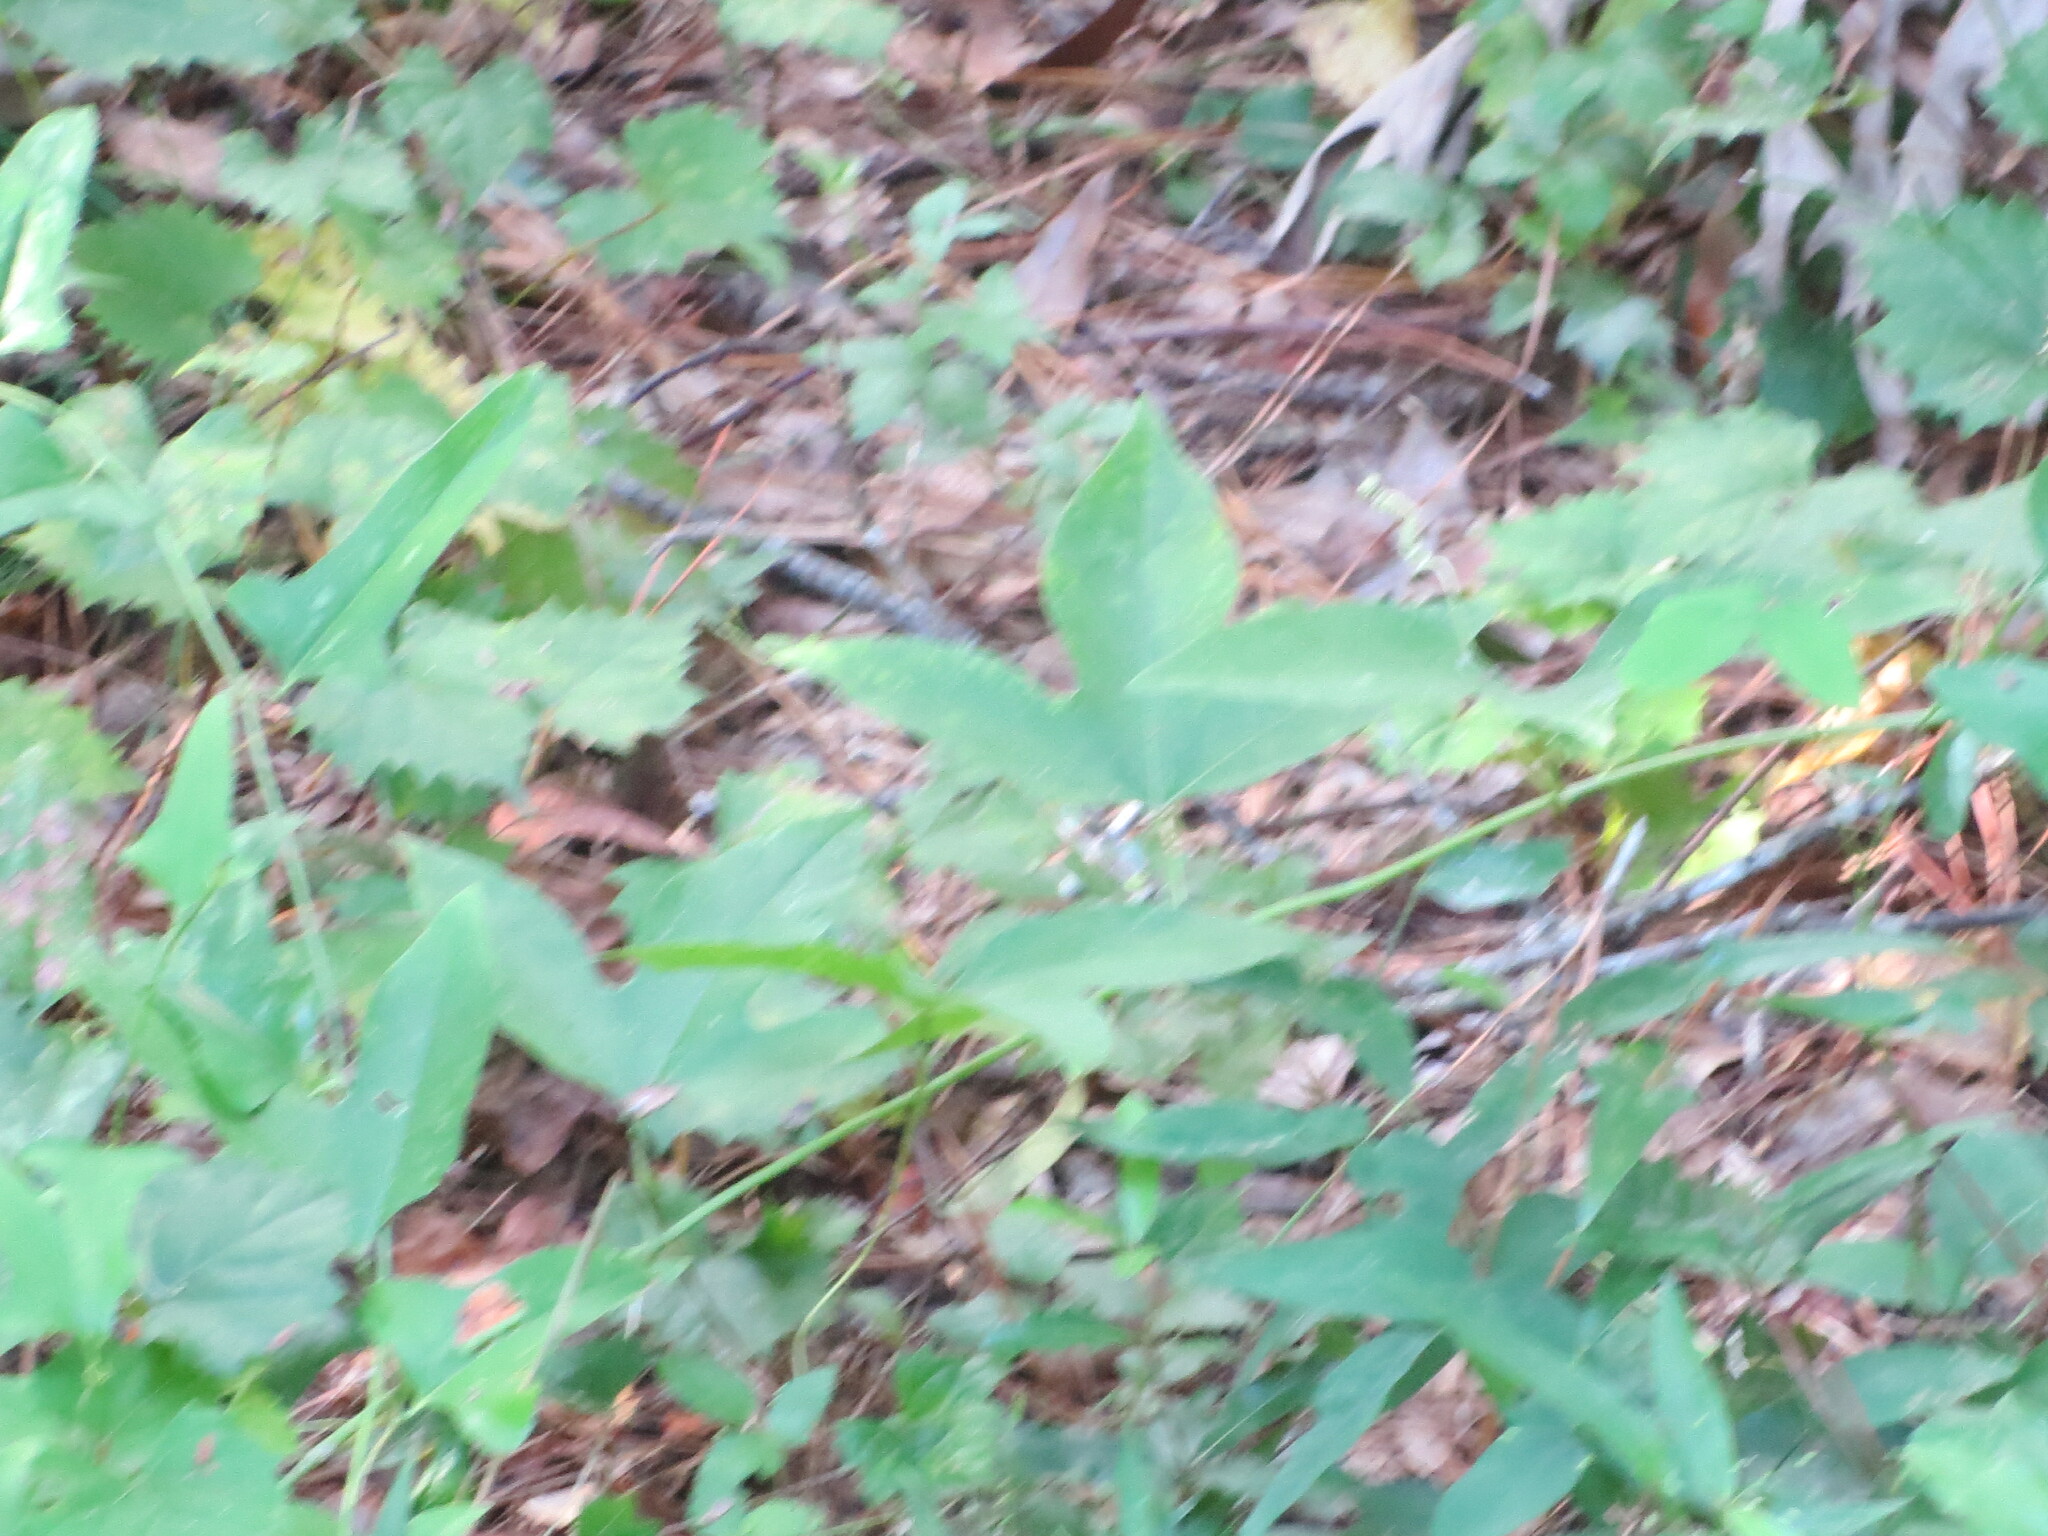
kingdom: Plantae
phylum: Tracheophyta
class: Magnoliopsida
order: Malpighiales
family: Passifloraceae
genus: Passiflora
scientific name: Passiflora incarnata
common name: Apricot-vine
